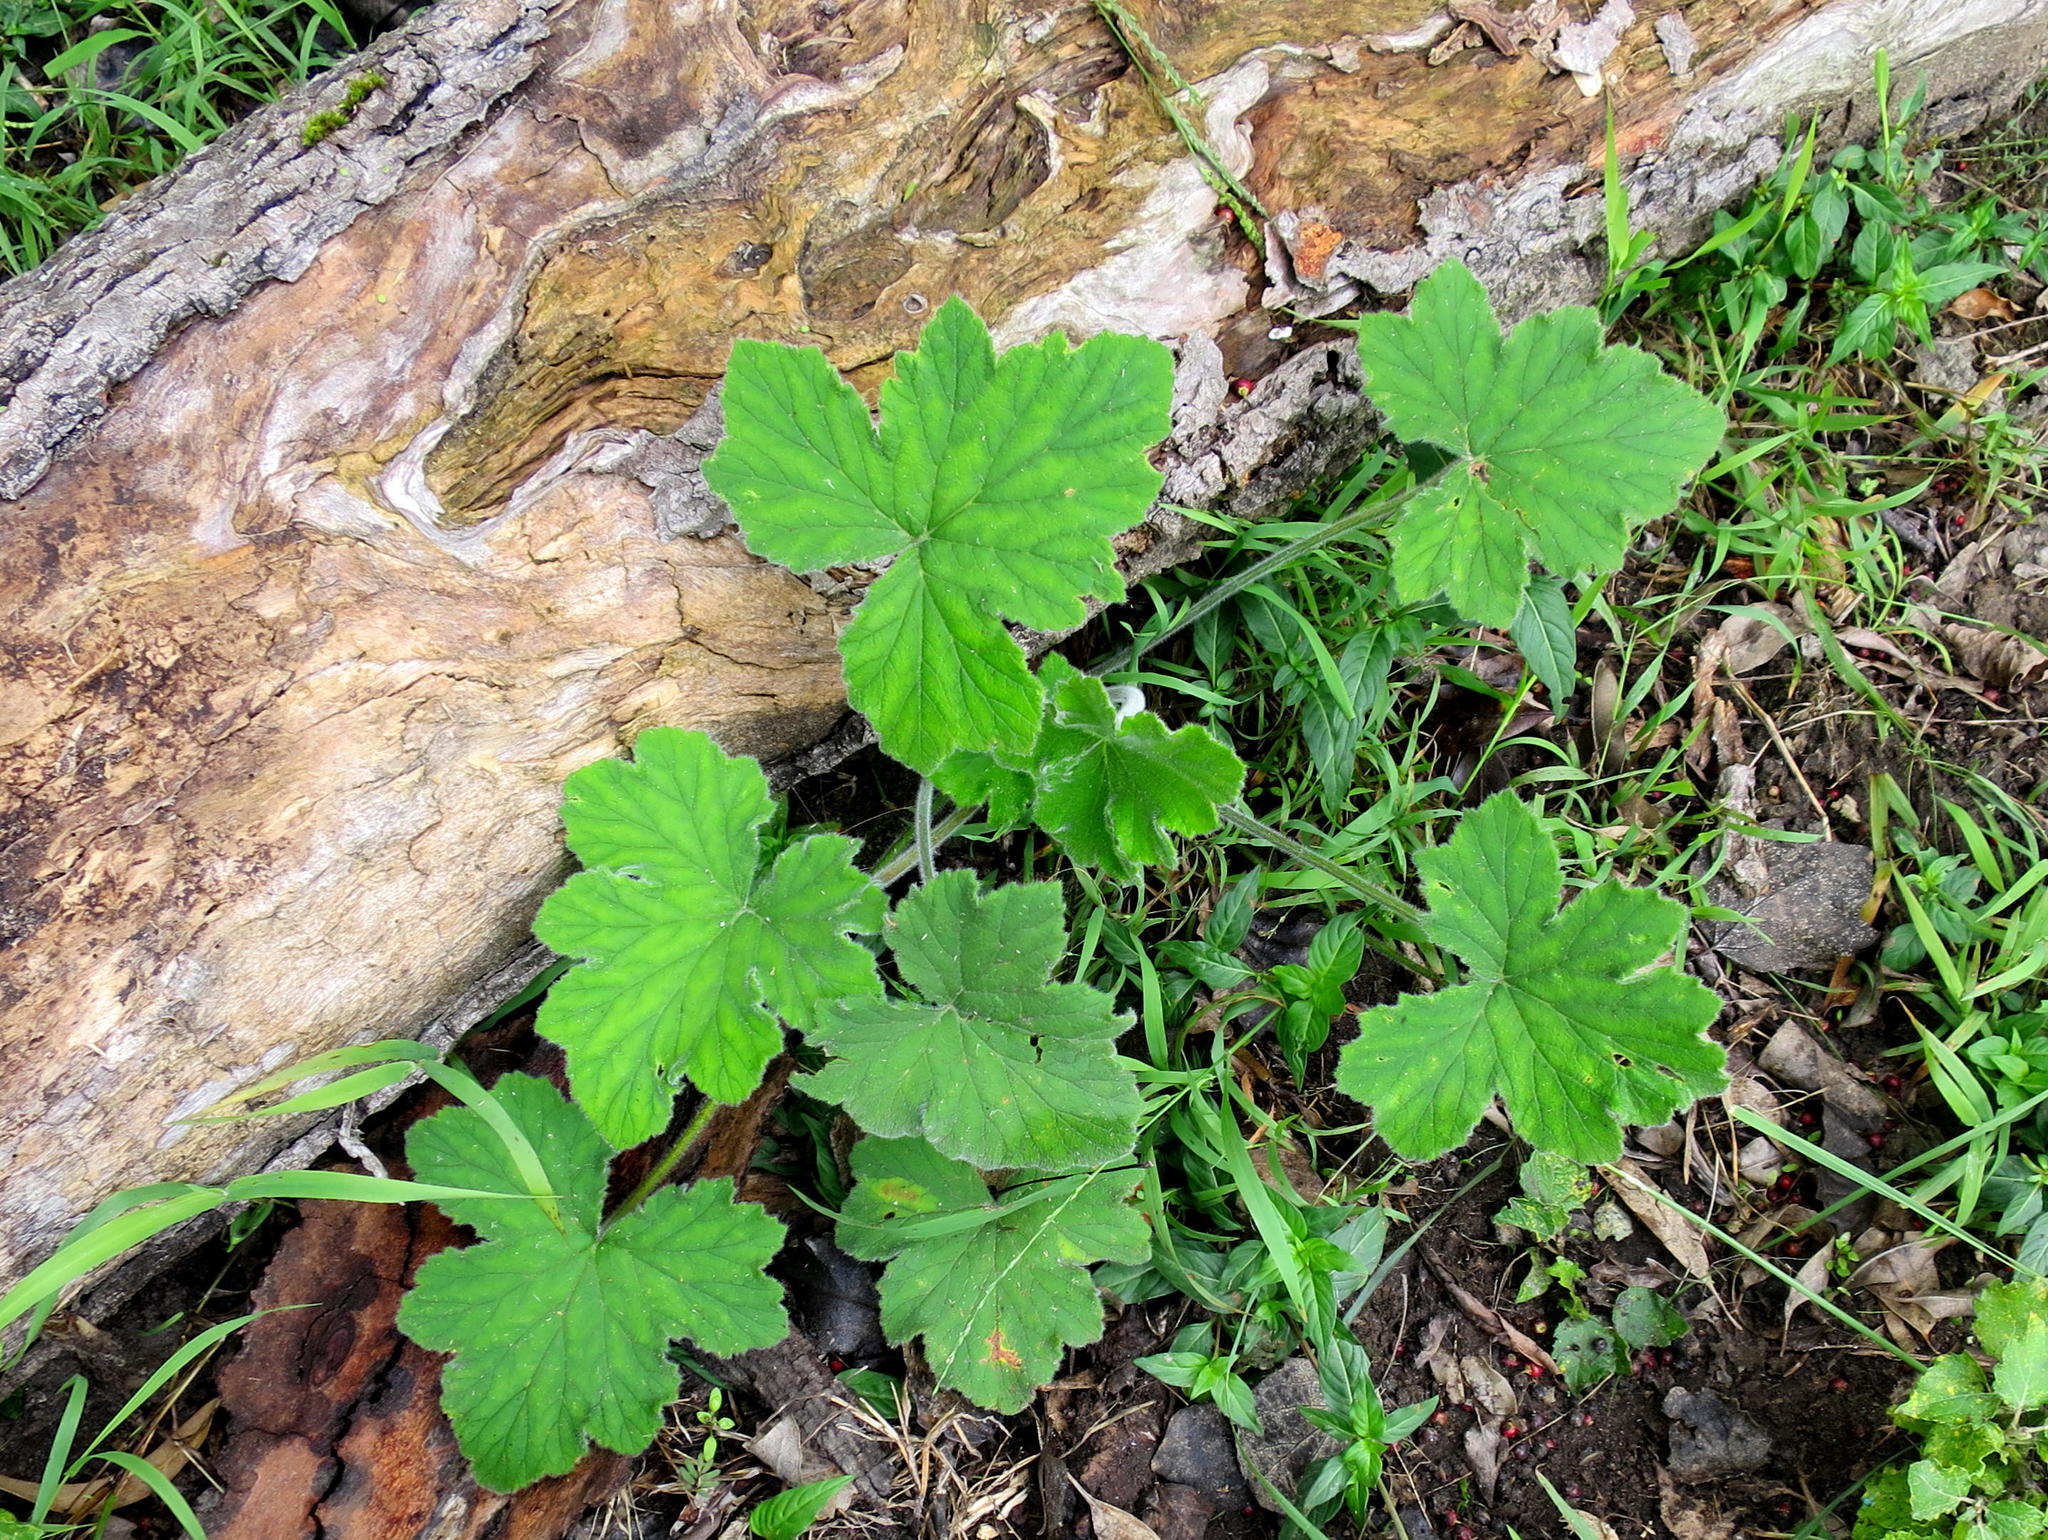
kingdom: Plantae
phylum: Tracheophyta
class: Magnoliopsida
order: Geraniales
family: Geraniaceae
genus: Pelargonium
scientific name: Pelargonium tomentosum
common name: Peppermint-scented geranium
